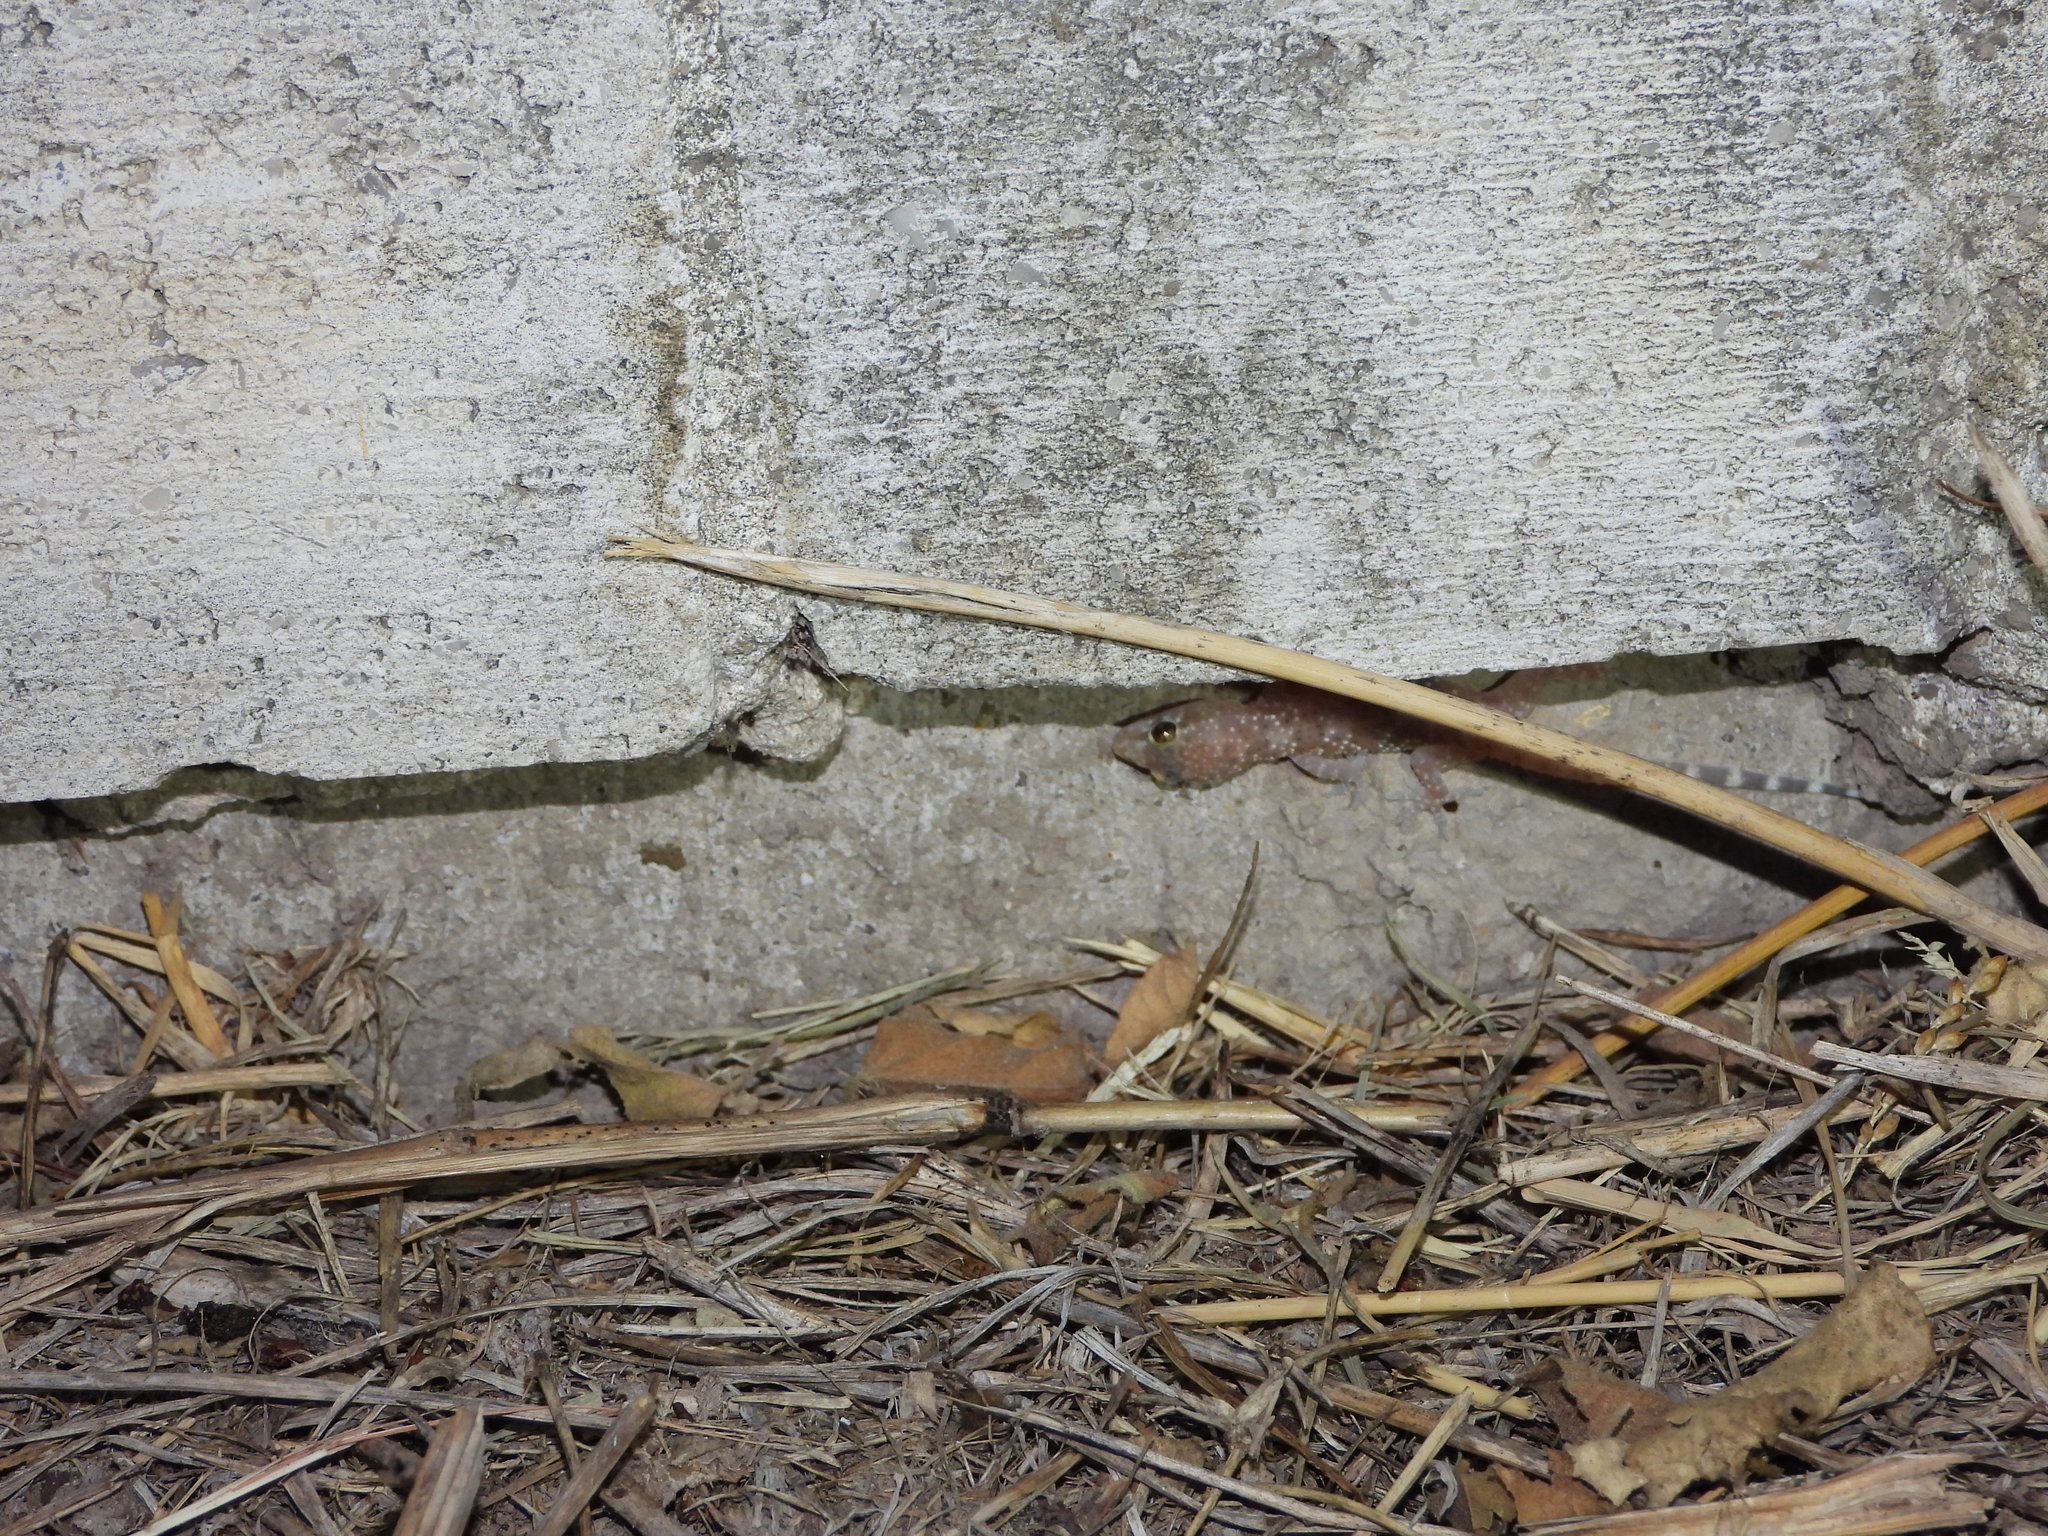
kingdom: Animalia
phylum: Chordata
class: Squamata
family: Gekkonidae
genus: Hemidactylus
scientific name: Hemidactylus turcicus
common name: Turkish gecko
